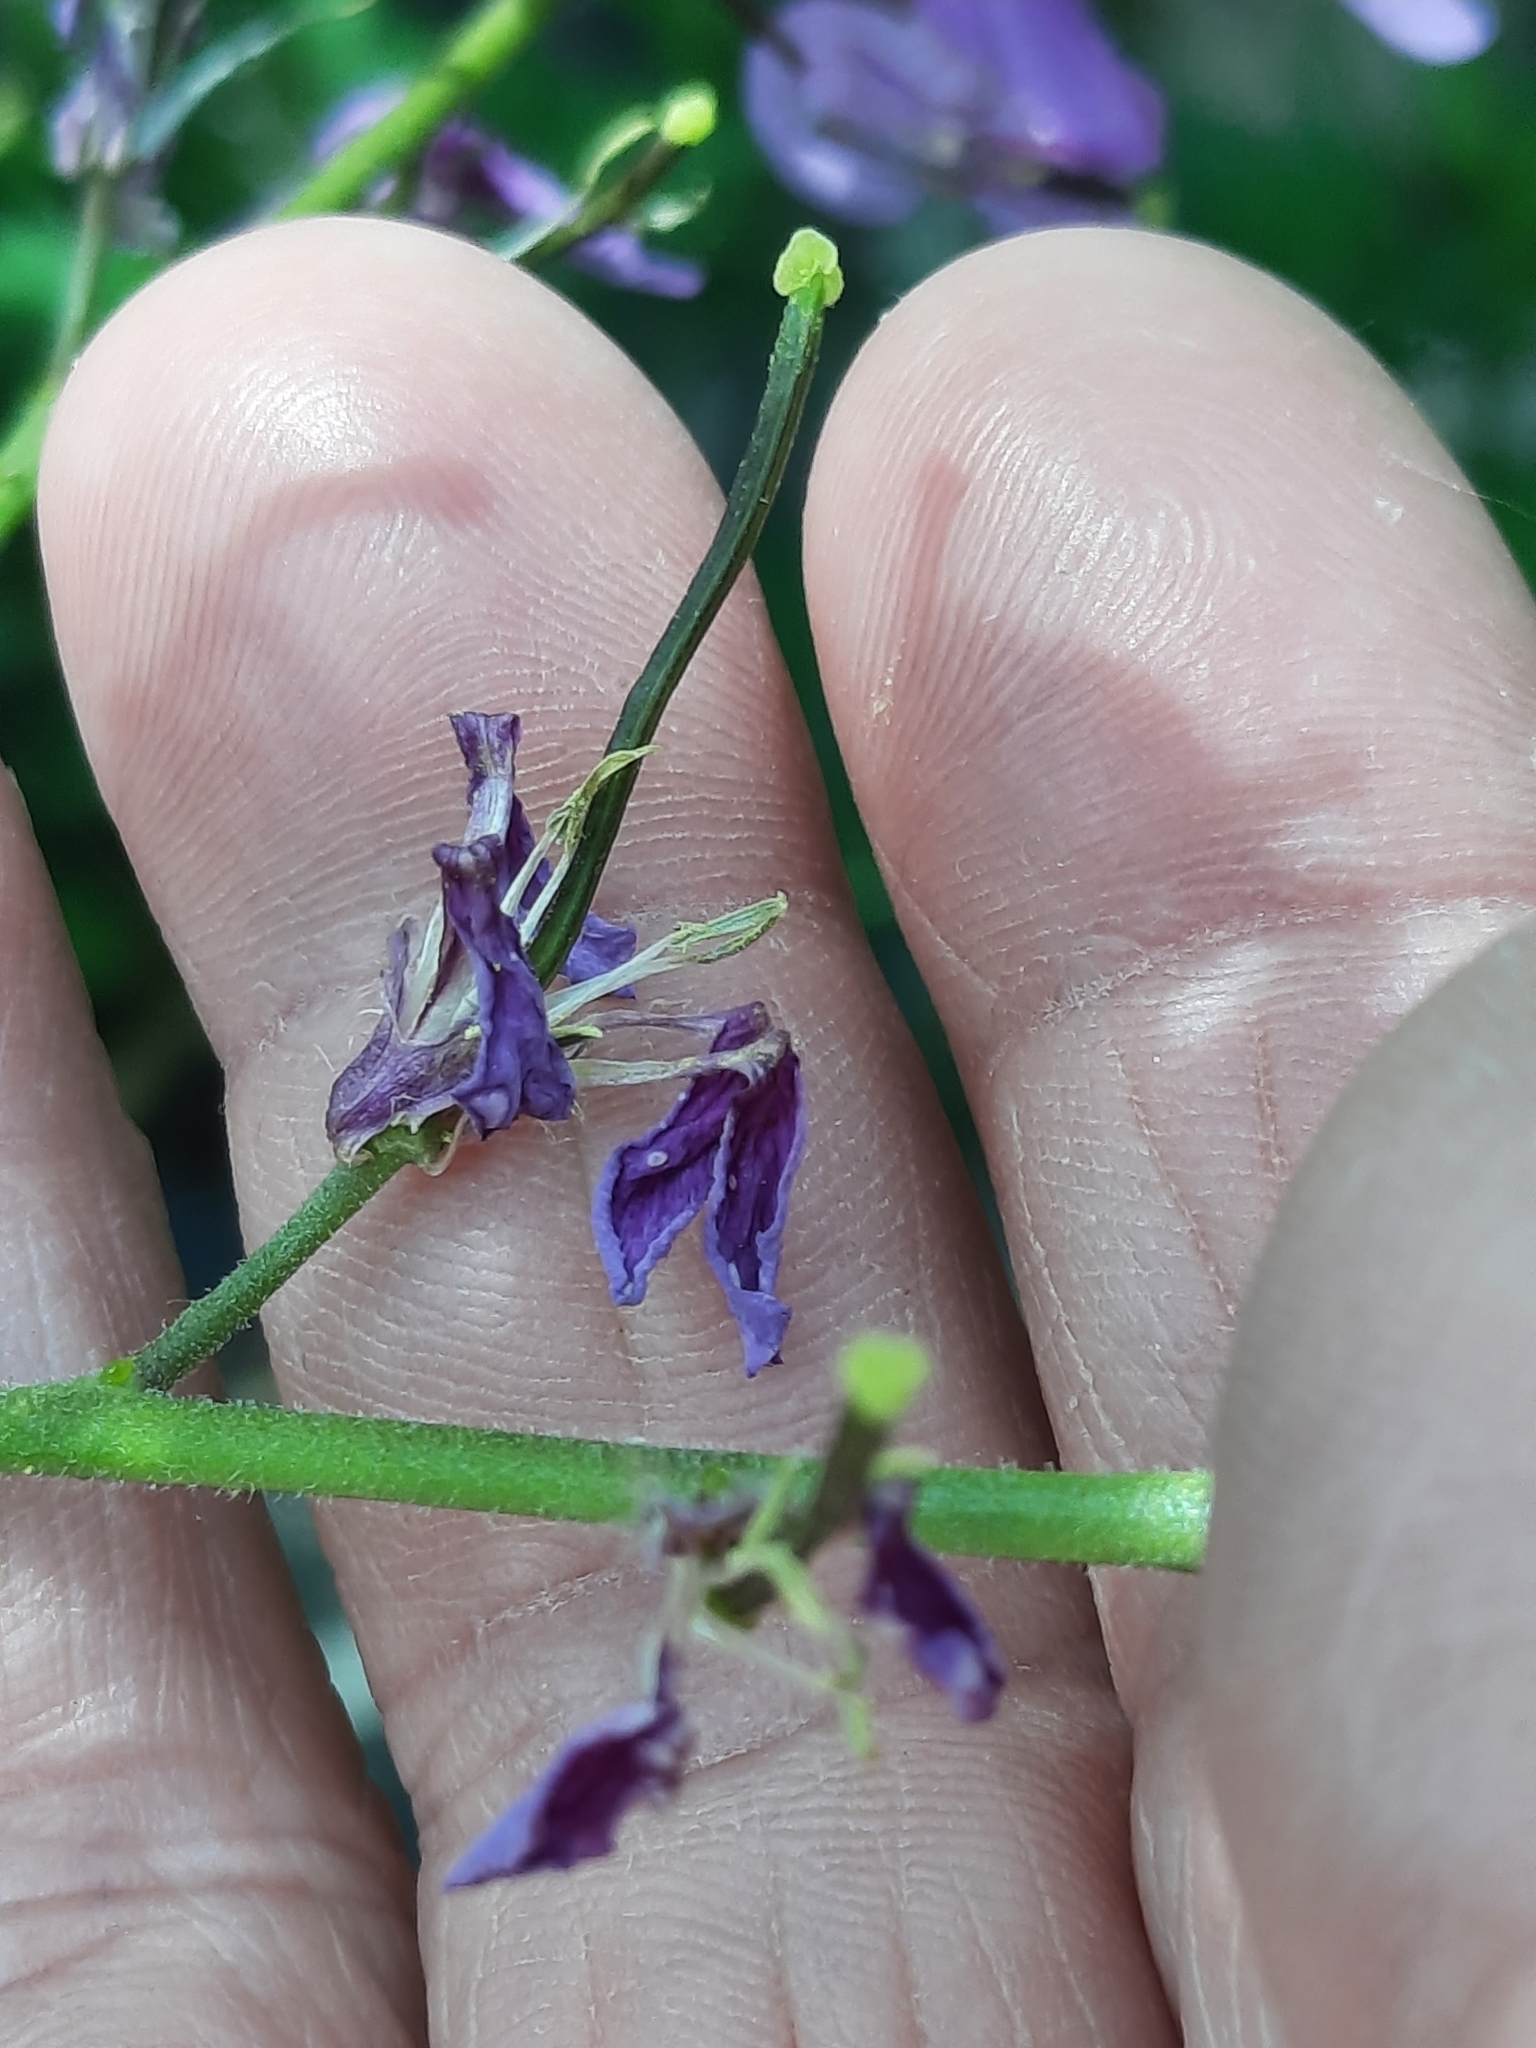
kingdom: Plantae
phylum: Tracheophyta
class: Magnoliopsida
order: Brassicales
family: Brassicaceae
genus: Hesperis
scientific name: Hesperis matronalis
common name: Dame's-violet
